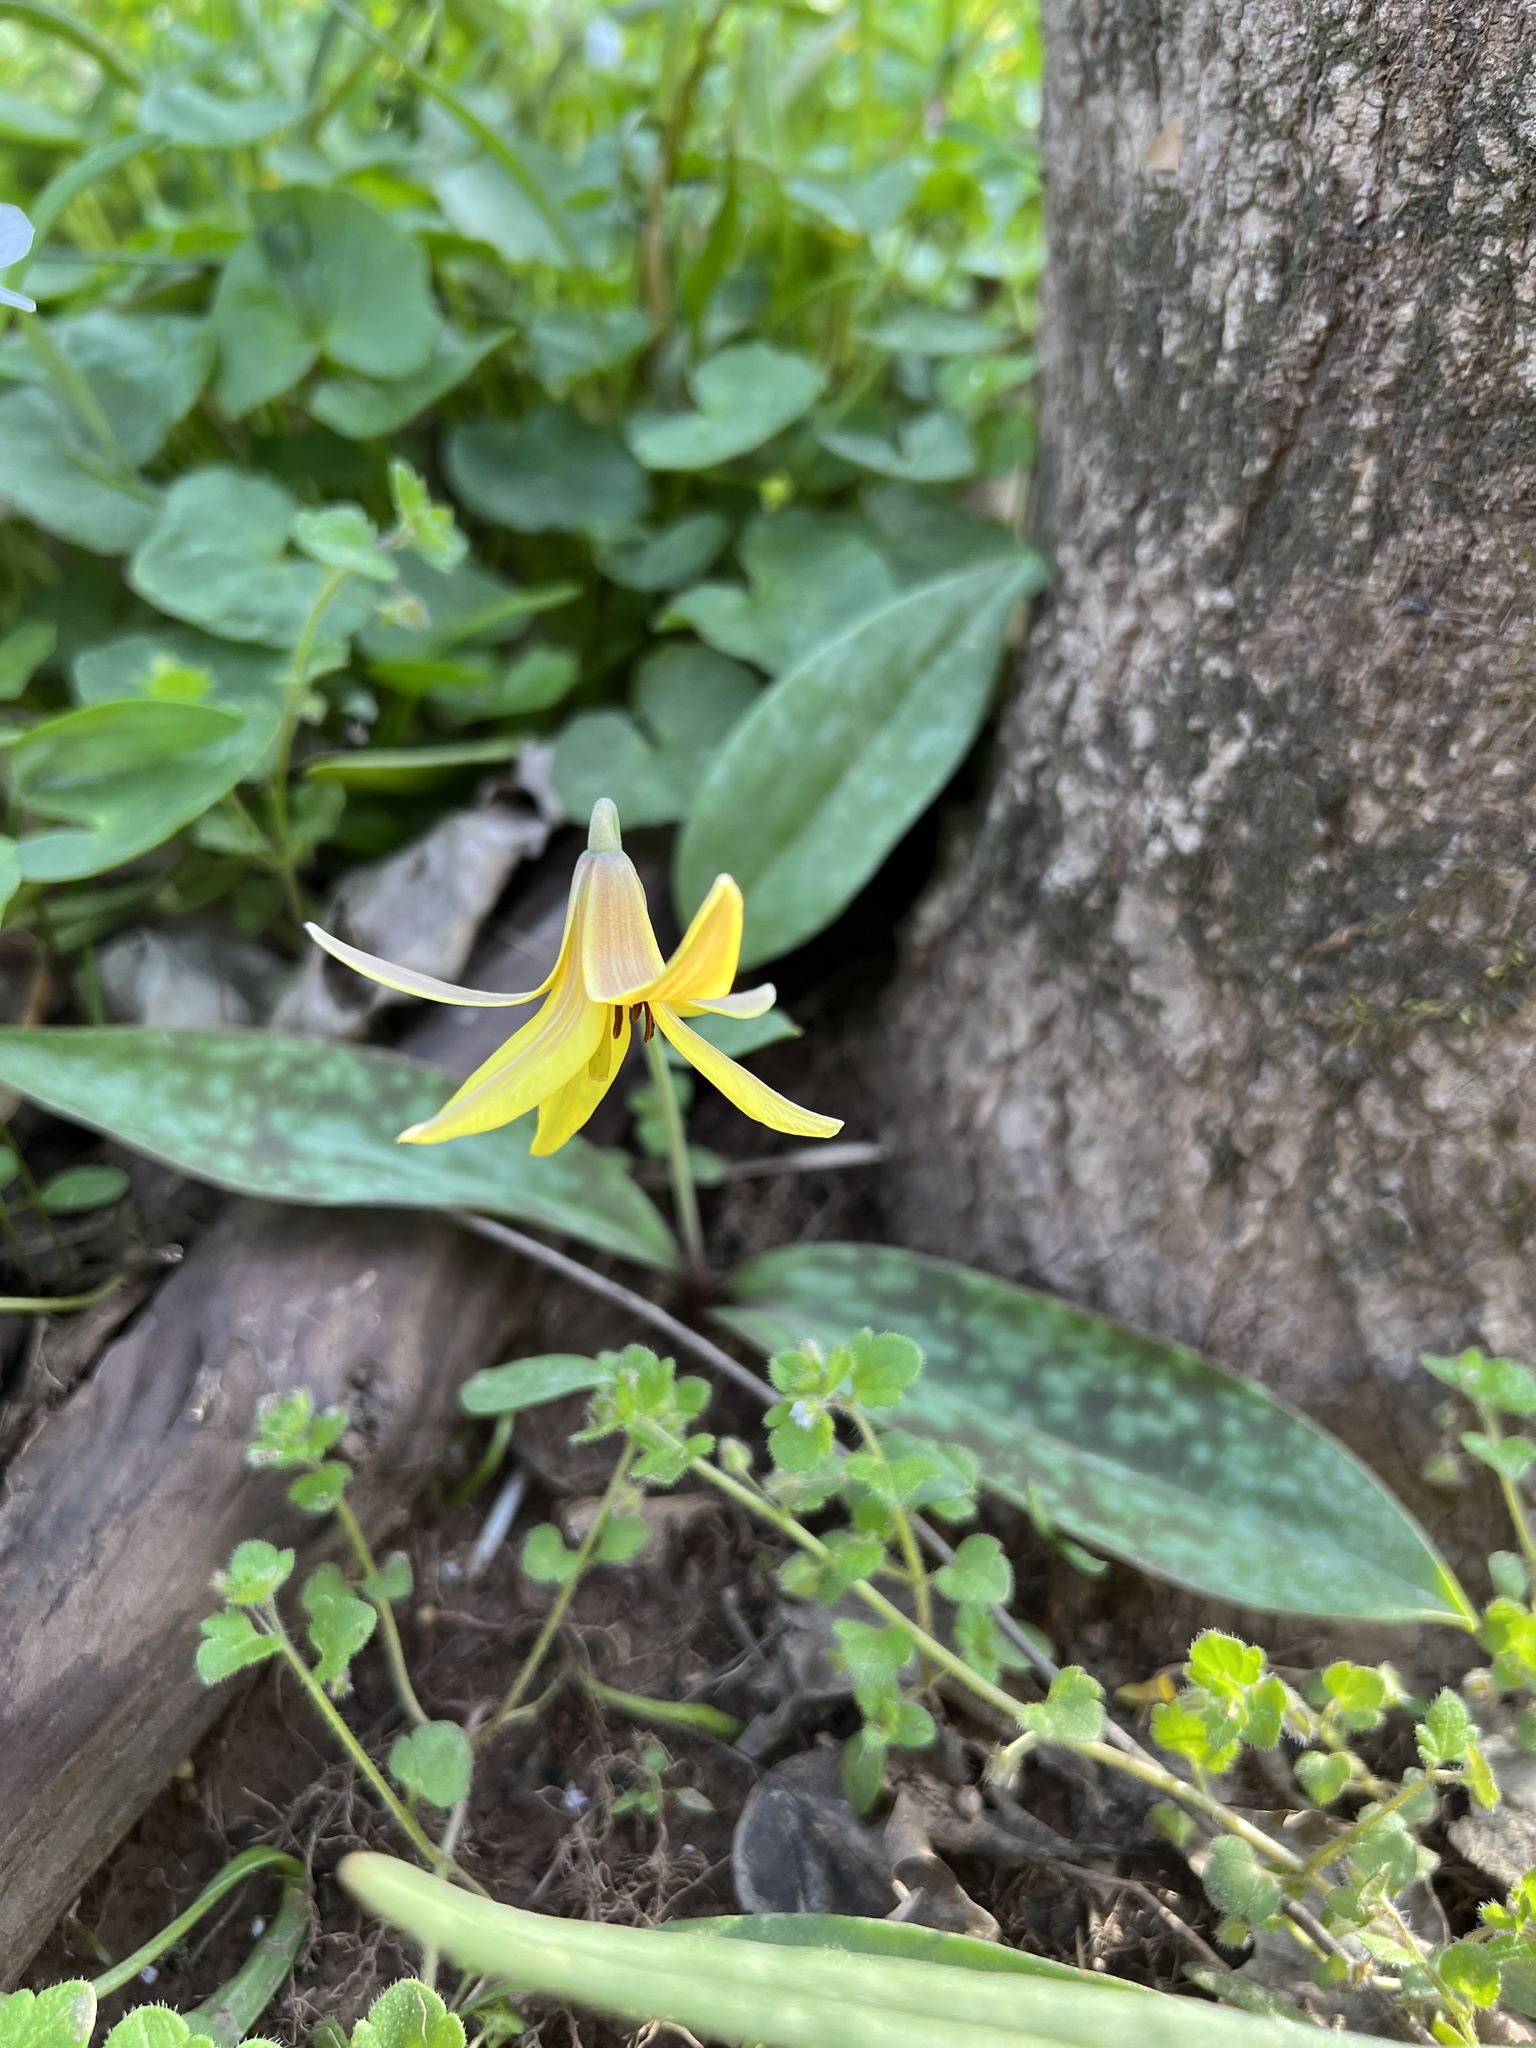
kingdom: Plantae
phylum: Tracheophyta
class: Liliopsida
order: Liliales
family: Liliaceae
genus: Erythronium
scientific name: Erythronium americanum
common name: Yellow adder's-tongue
